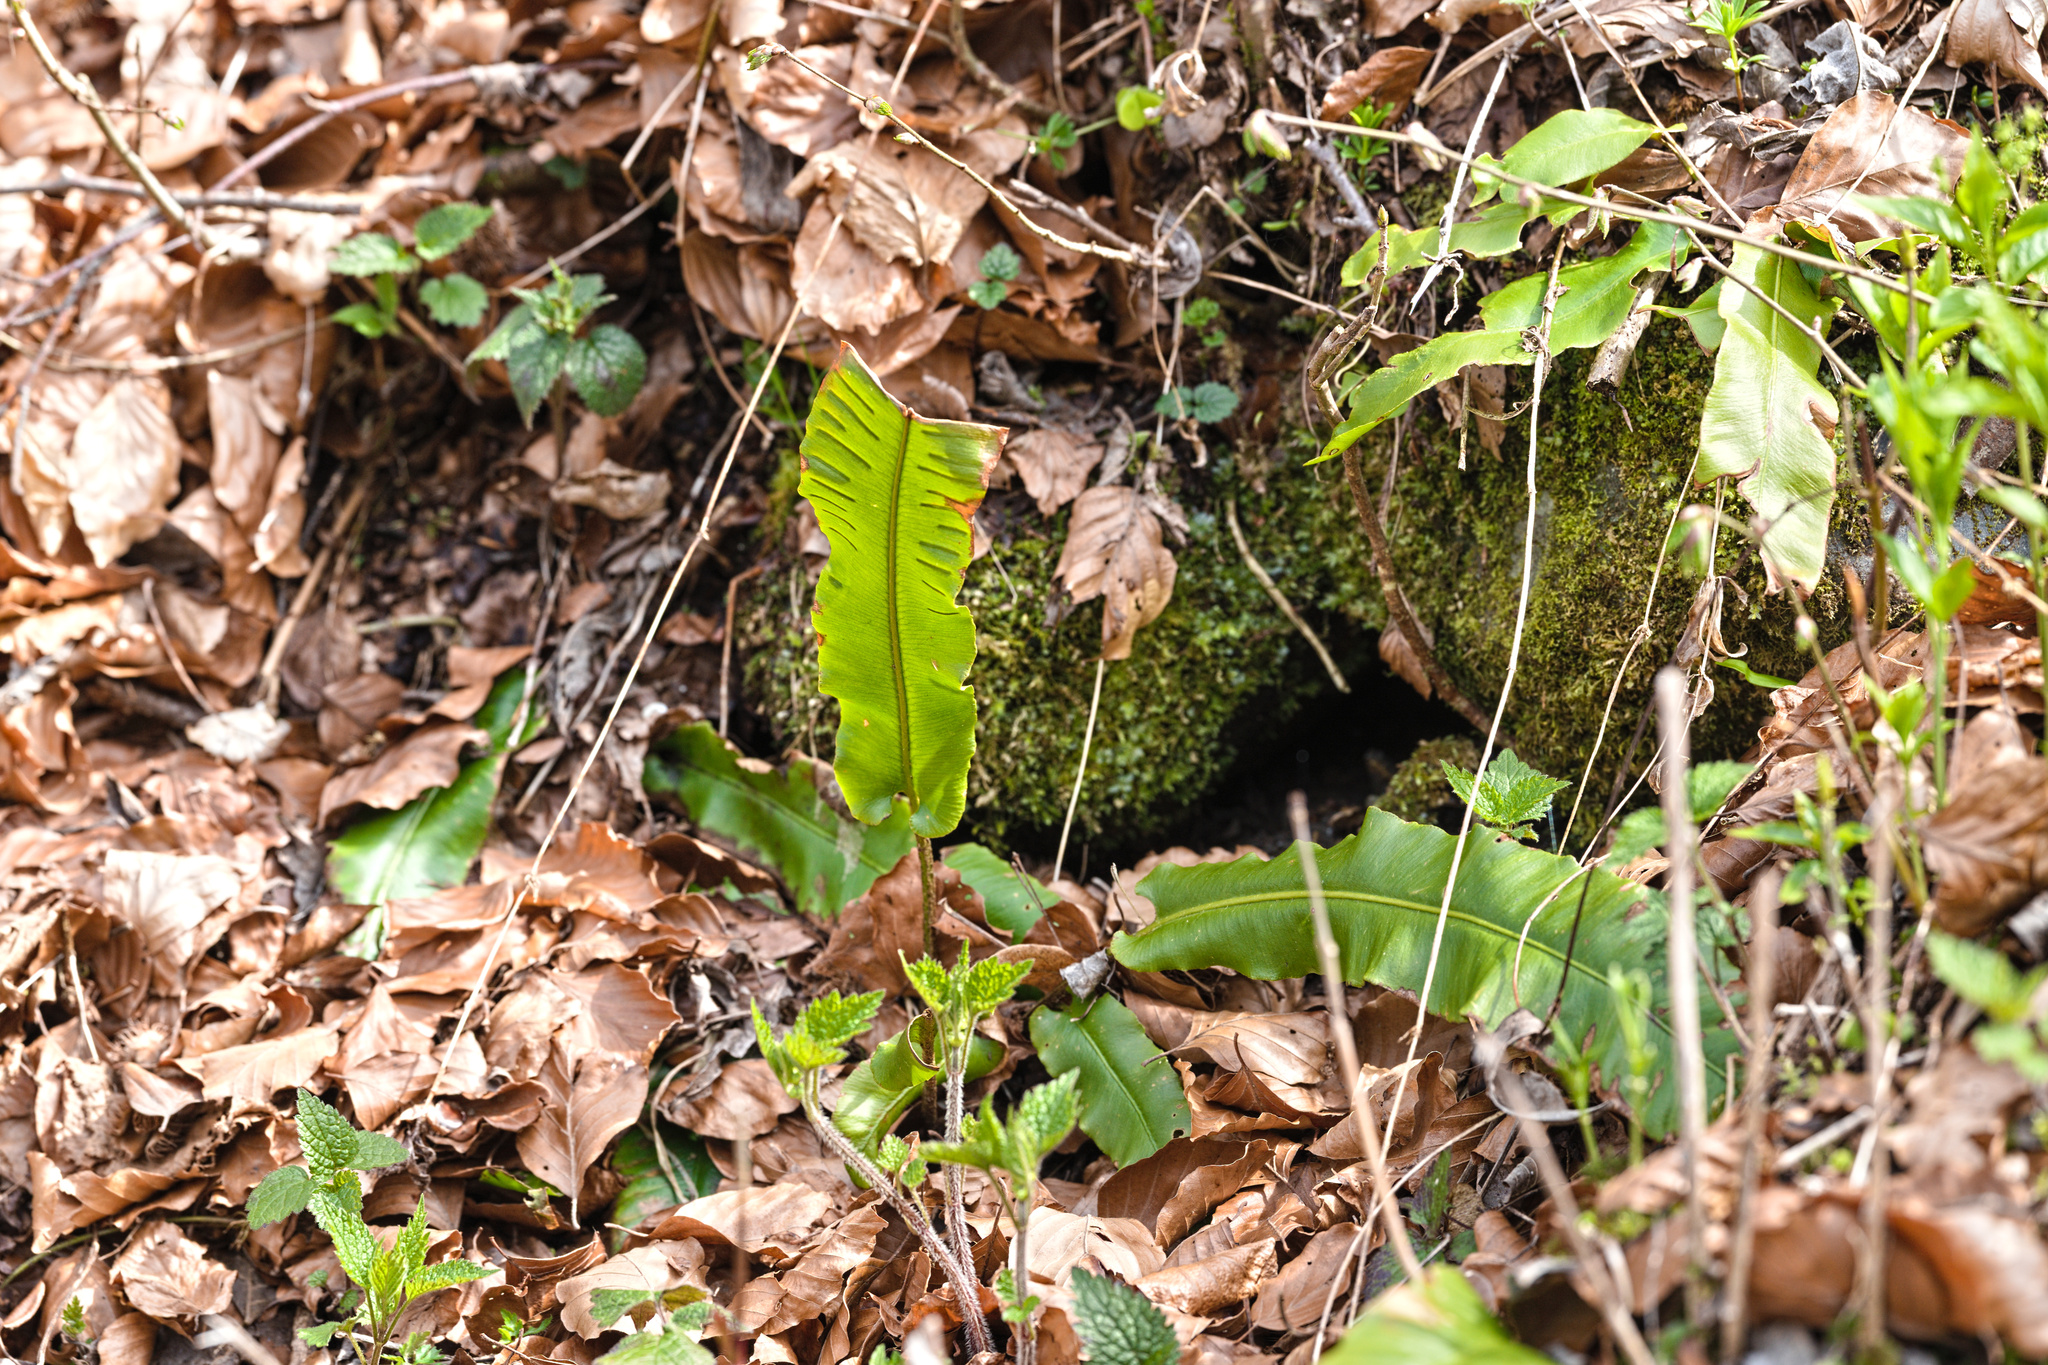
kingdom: Plantae
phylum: Tracheophyta
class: Polypodiopsida
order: Polypodiales
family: Aspleniaceae
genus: Asplenium
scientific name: Asplenium scolopendrium
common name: Hart's-tongue fern
